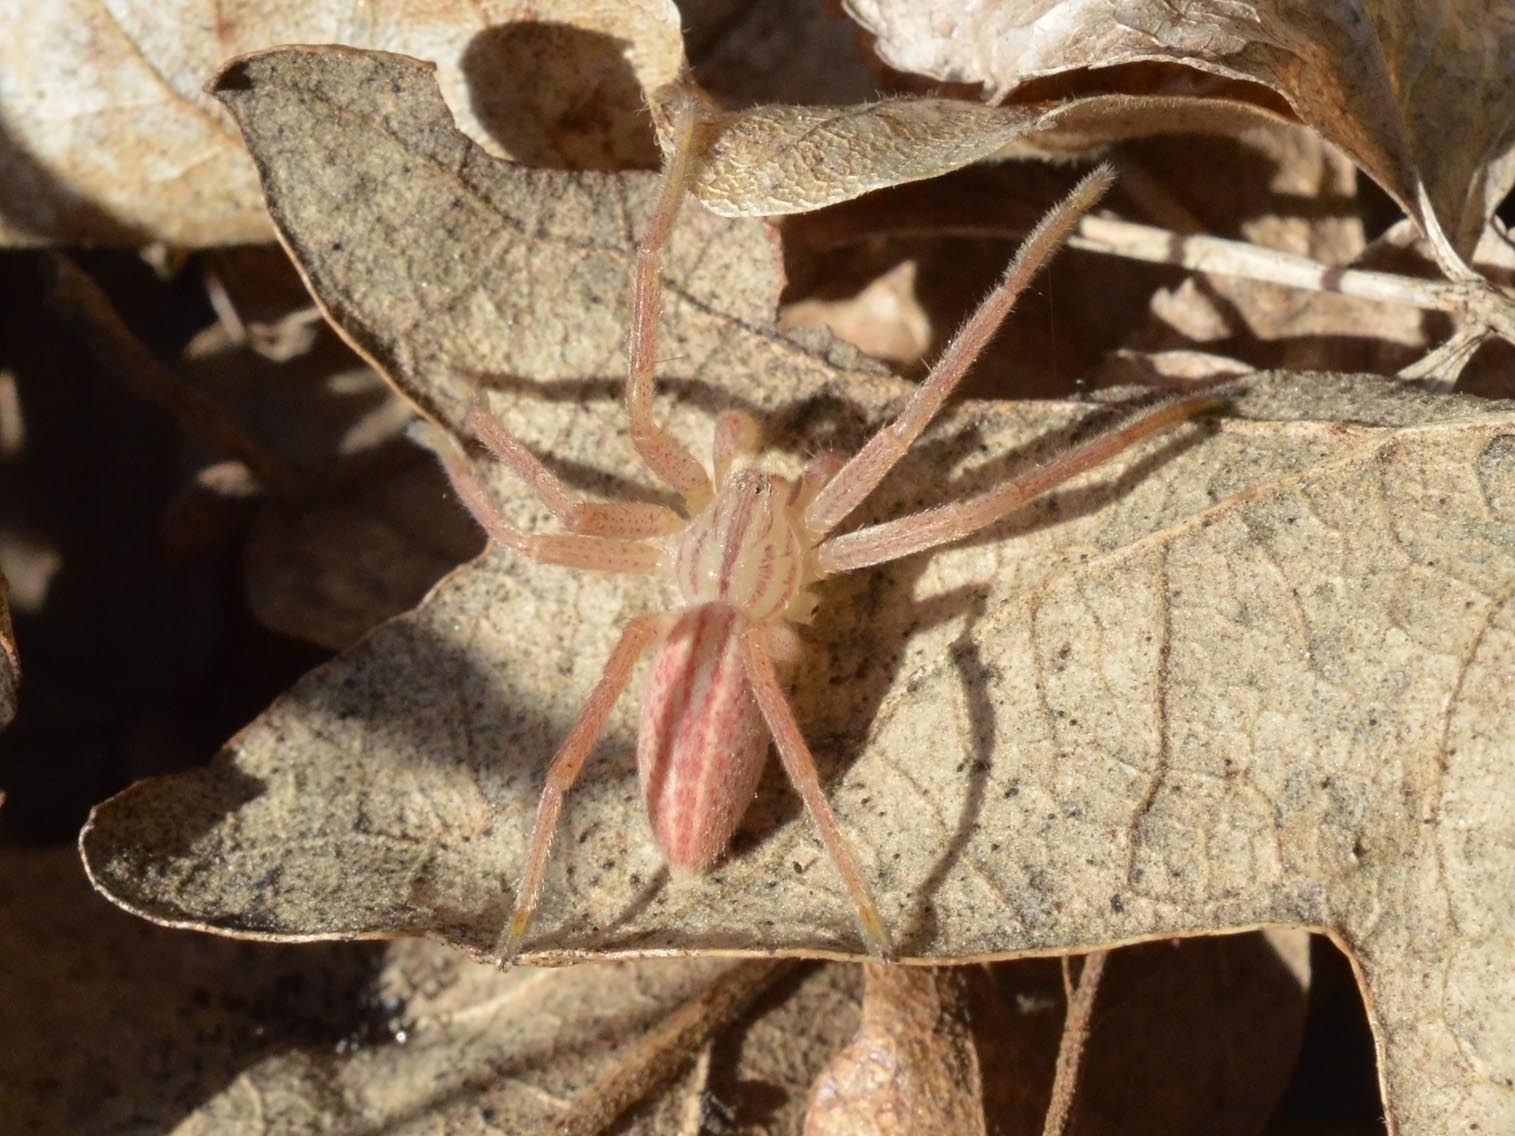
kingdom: Animalia
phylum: Arthropoda
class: Arachnida
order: Araneae
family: Sparassidae
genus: Micrommata
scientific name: Micrommata virescens
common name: Green spider
